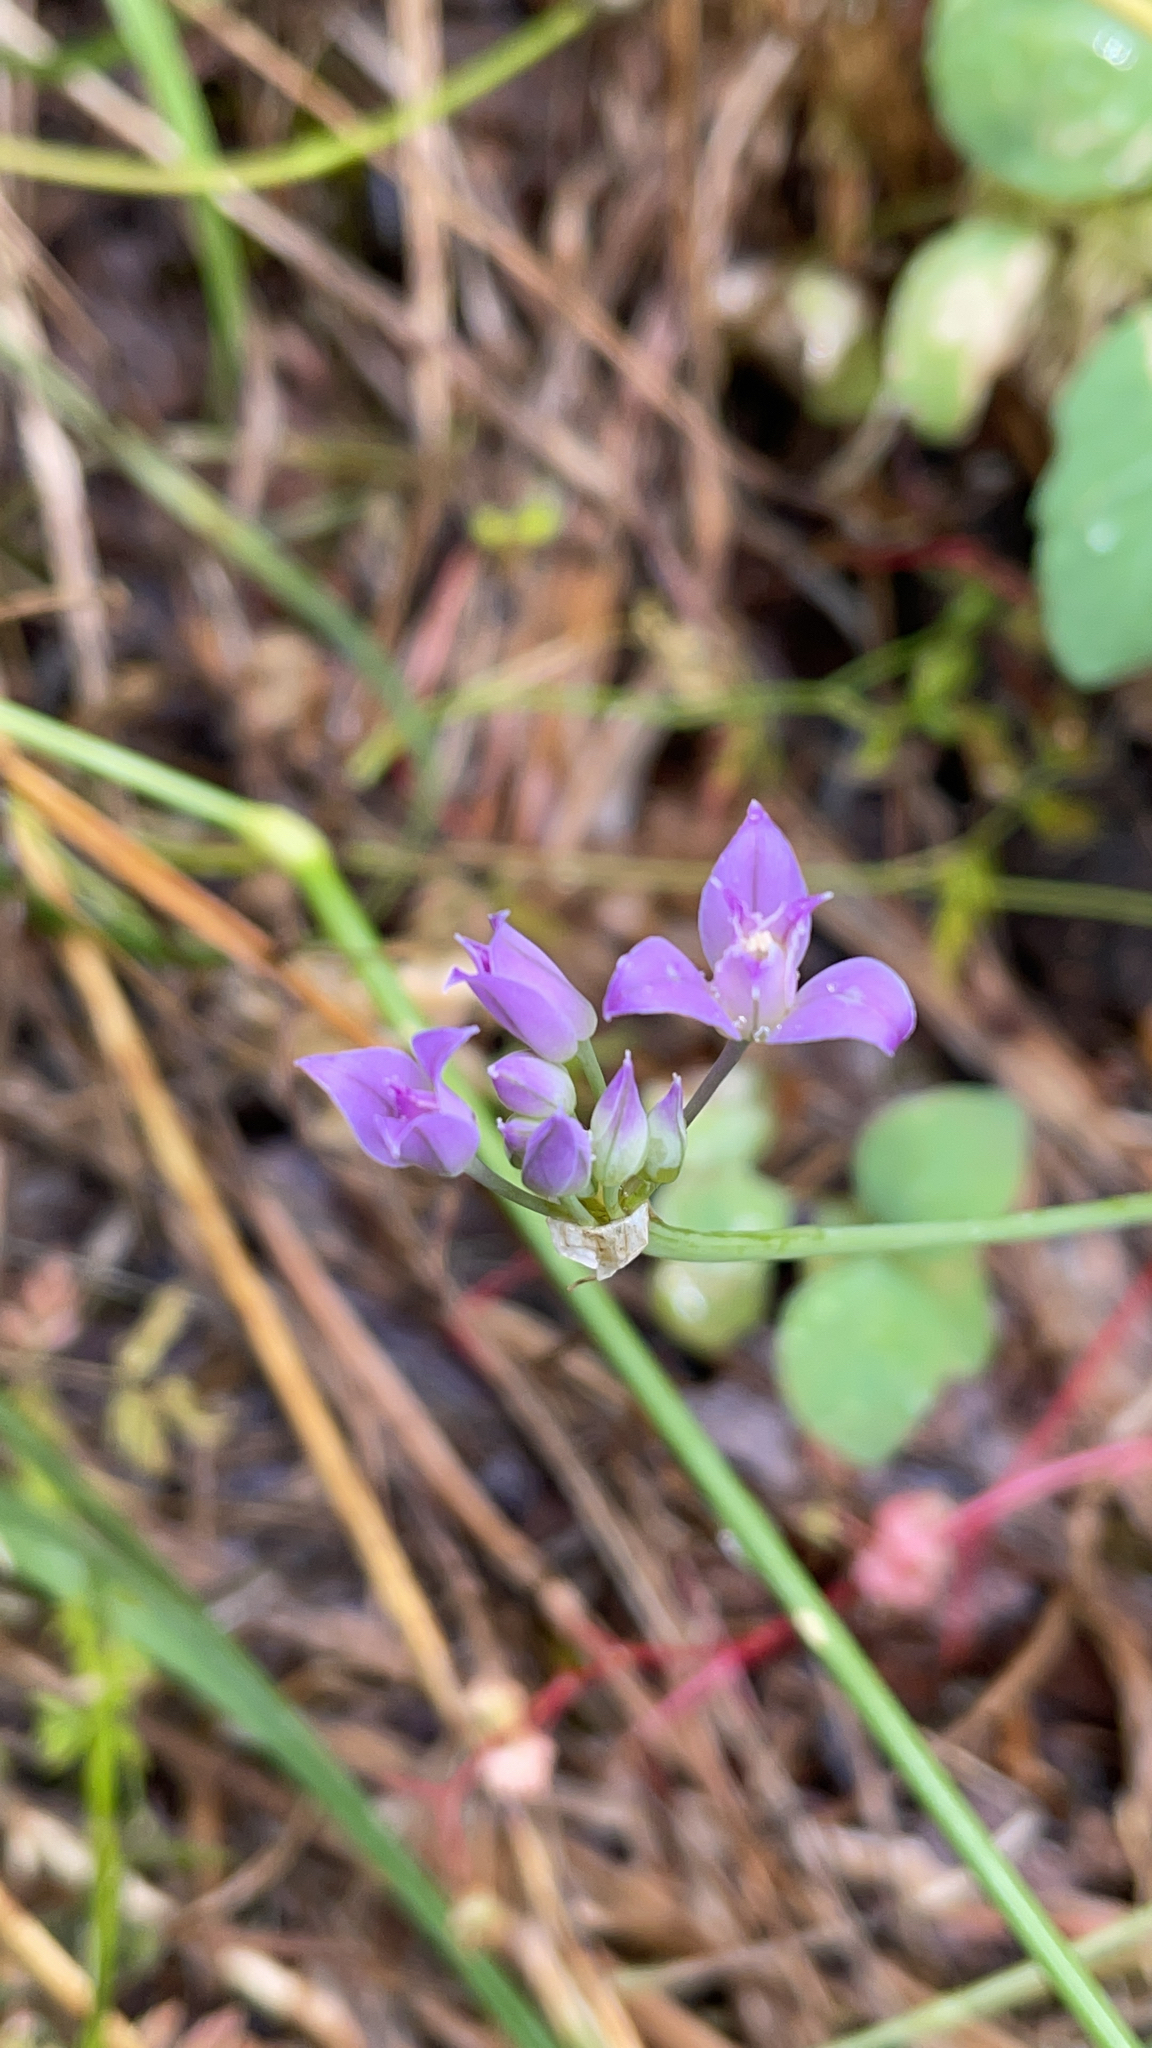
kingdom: Plantae
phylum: Tracheophyta
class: Liliopsida
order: Asparagales
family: Amaryllidaceae
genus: Allium
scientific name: Allium acuminatum
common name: Hooker's onion
